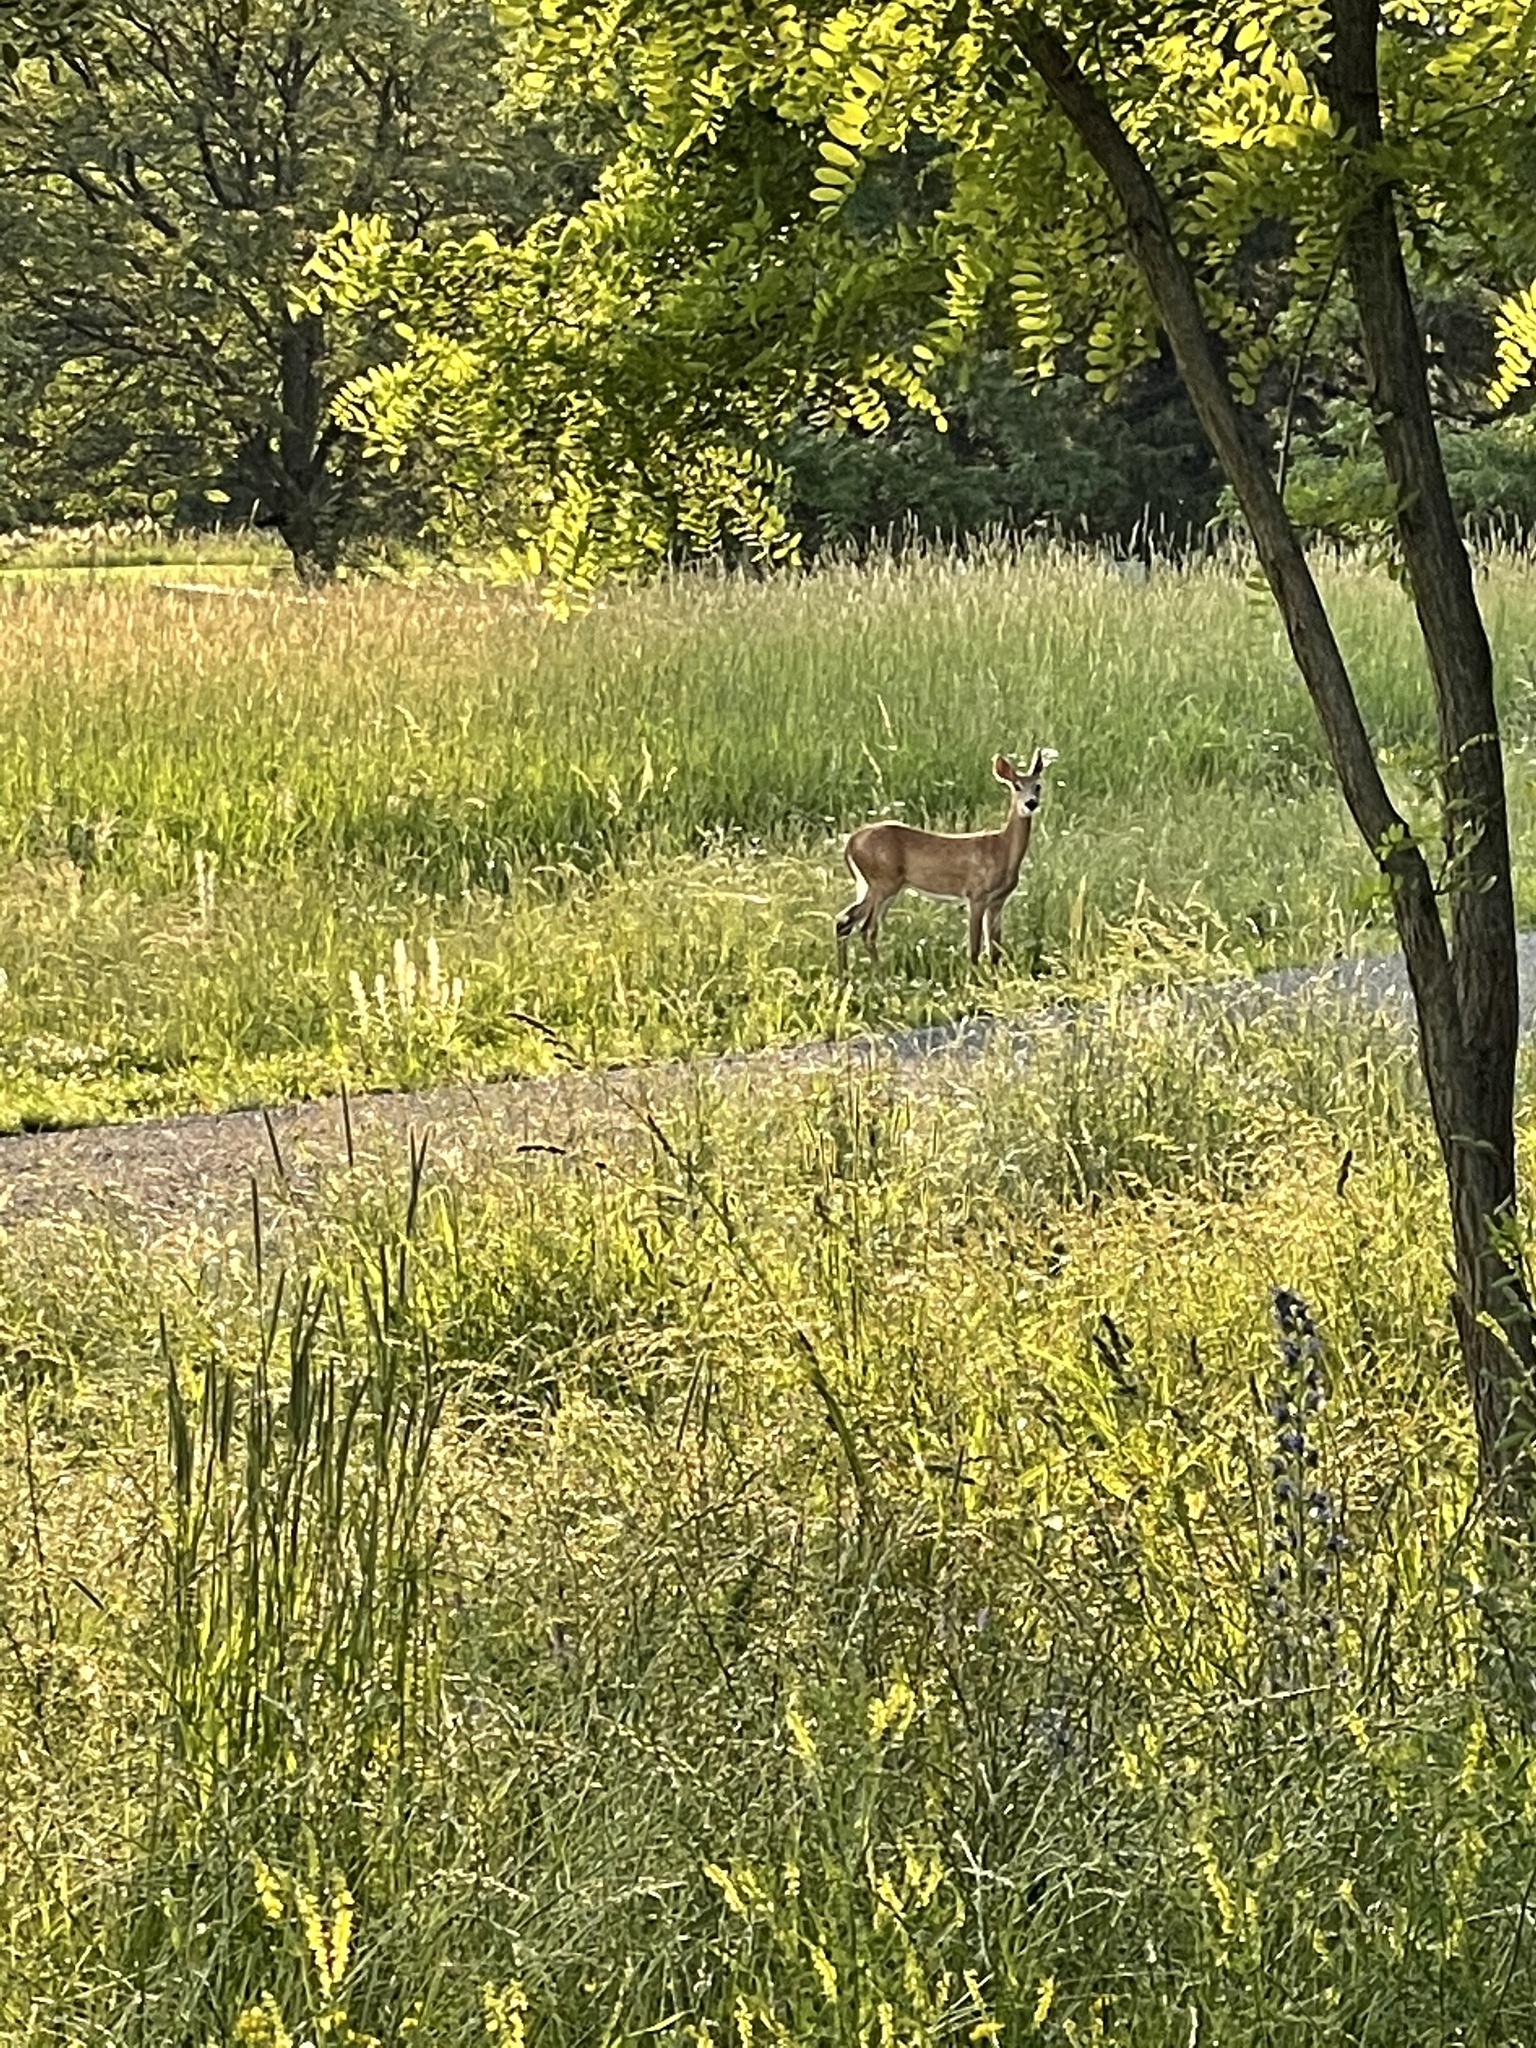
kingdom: Animalia
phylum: Chordata
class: Mammalia
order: Artiodactyla
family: Cervidae
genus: Odocoileus
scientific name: Odocoileus virginianus
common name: White-tailed deer
